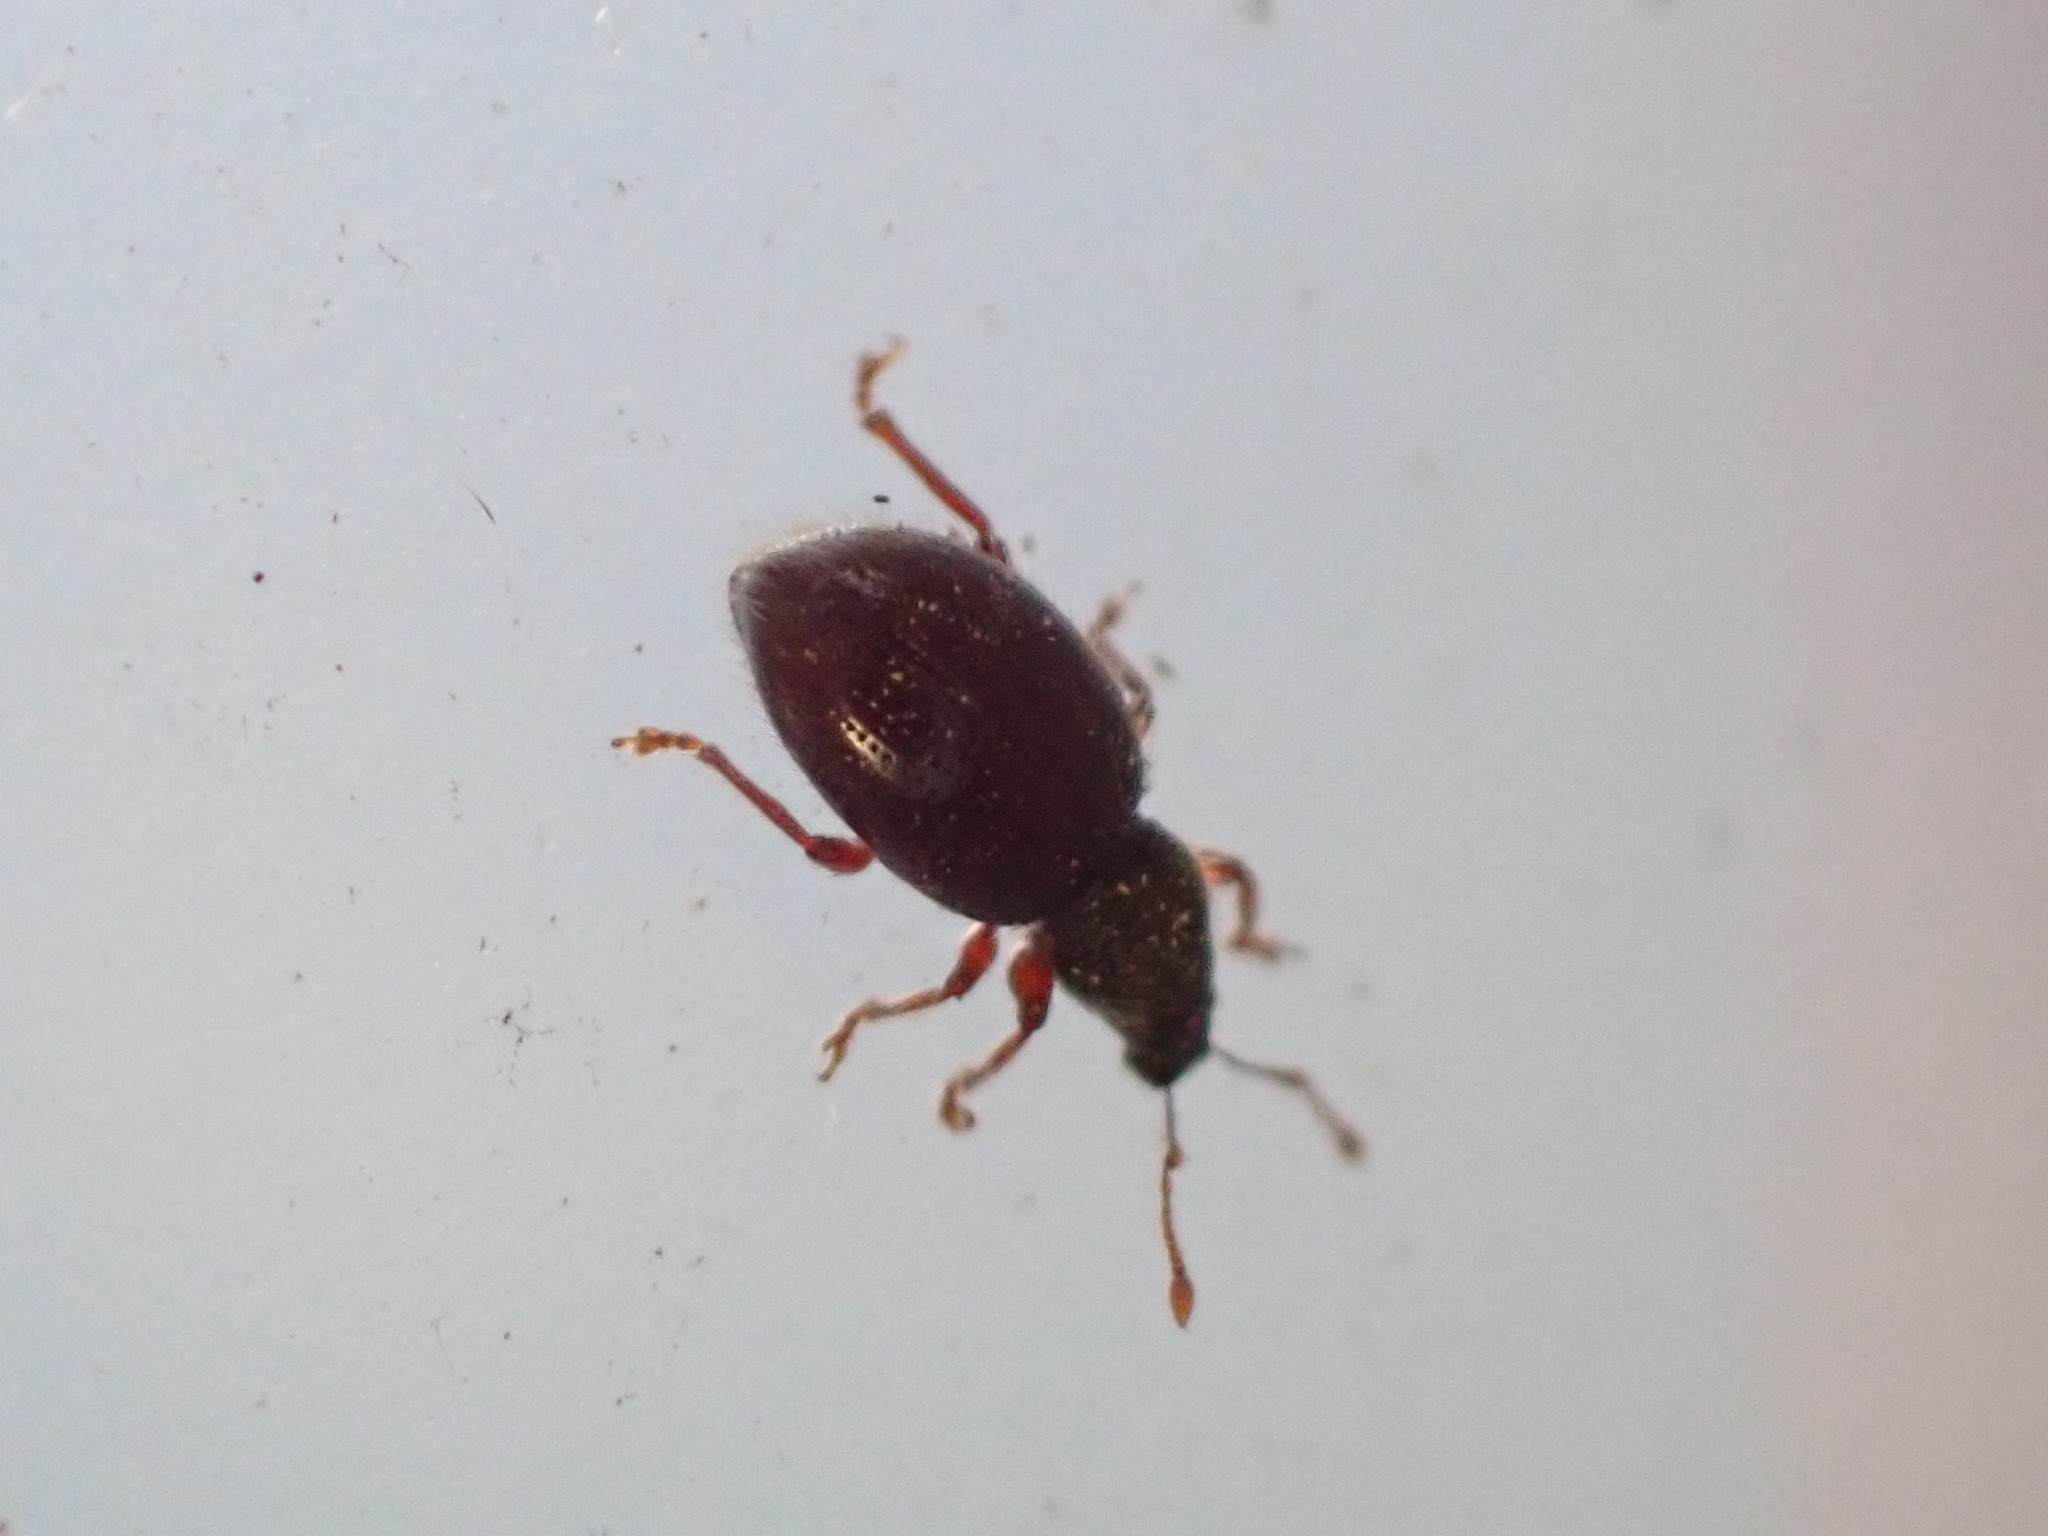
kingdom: Animalia
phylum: Arthropoda
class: Insecta
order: Coleoptera
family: Curculionidae
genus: Exomias
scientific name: Exomias pellucidus
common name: Hairy spider weevil
